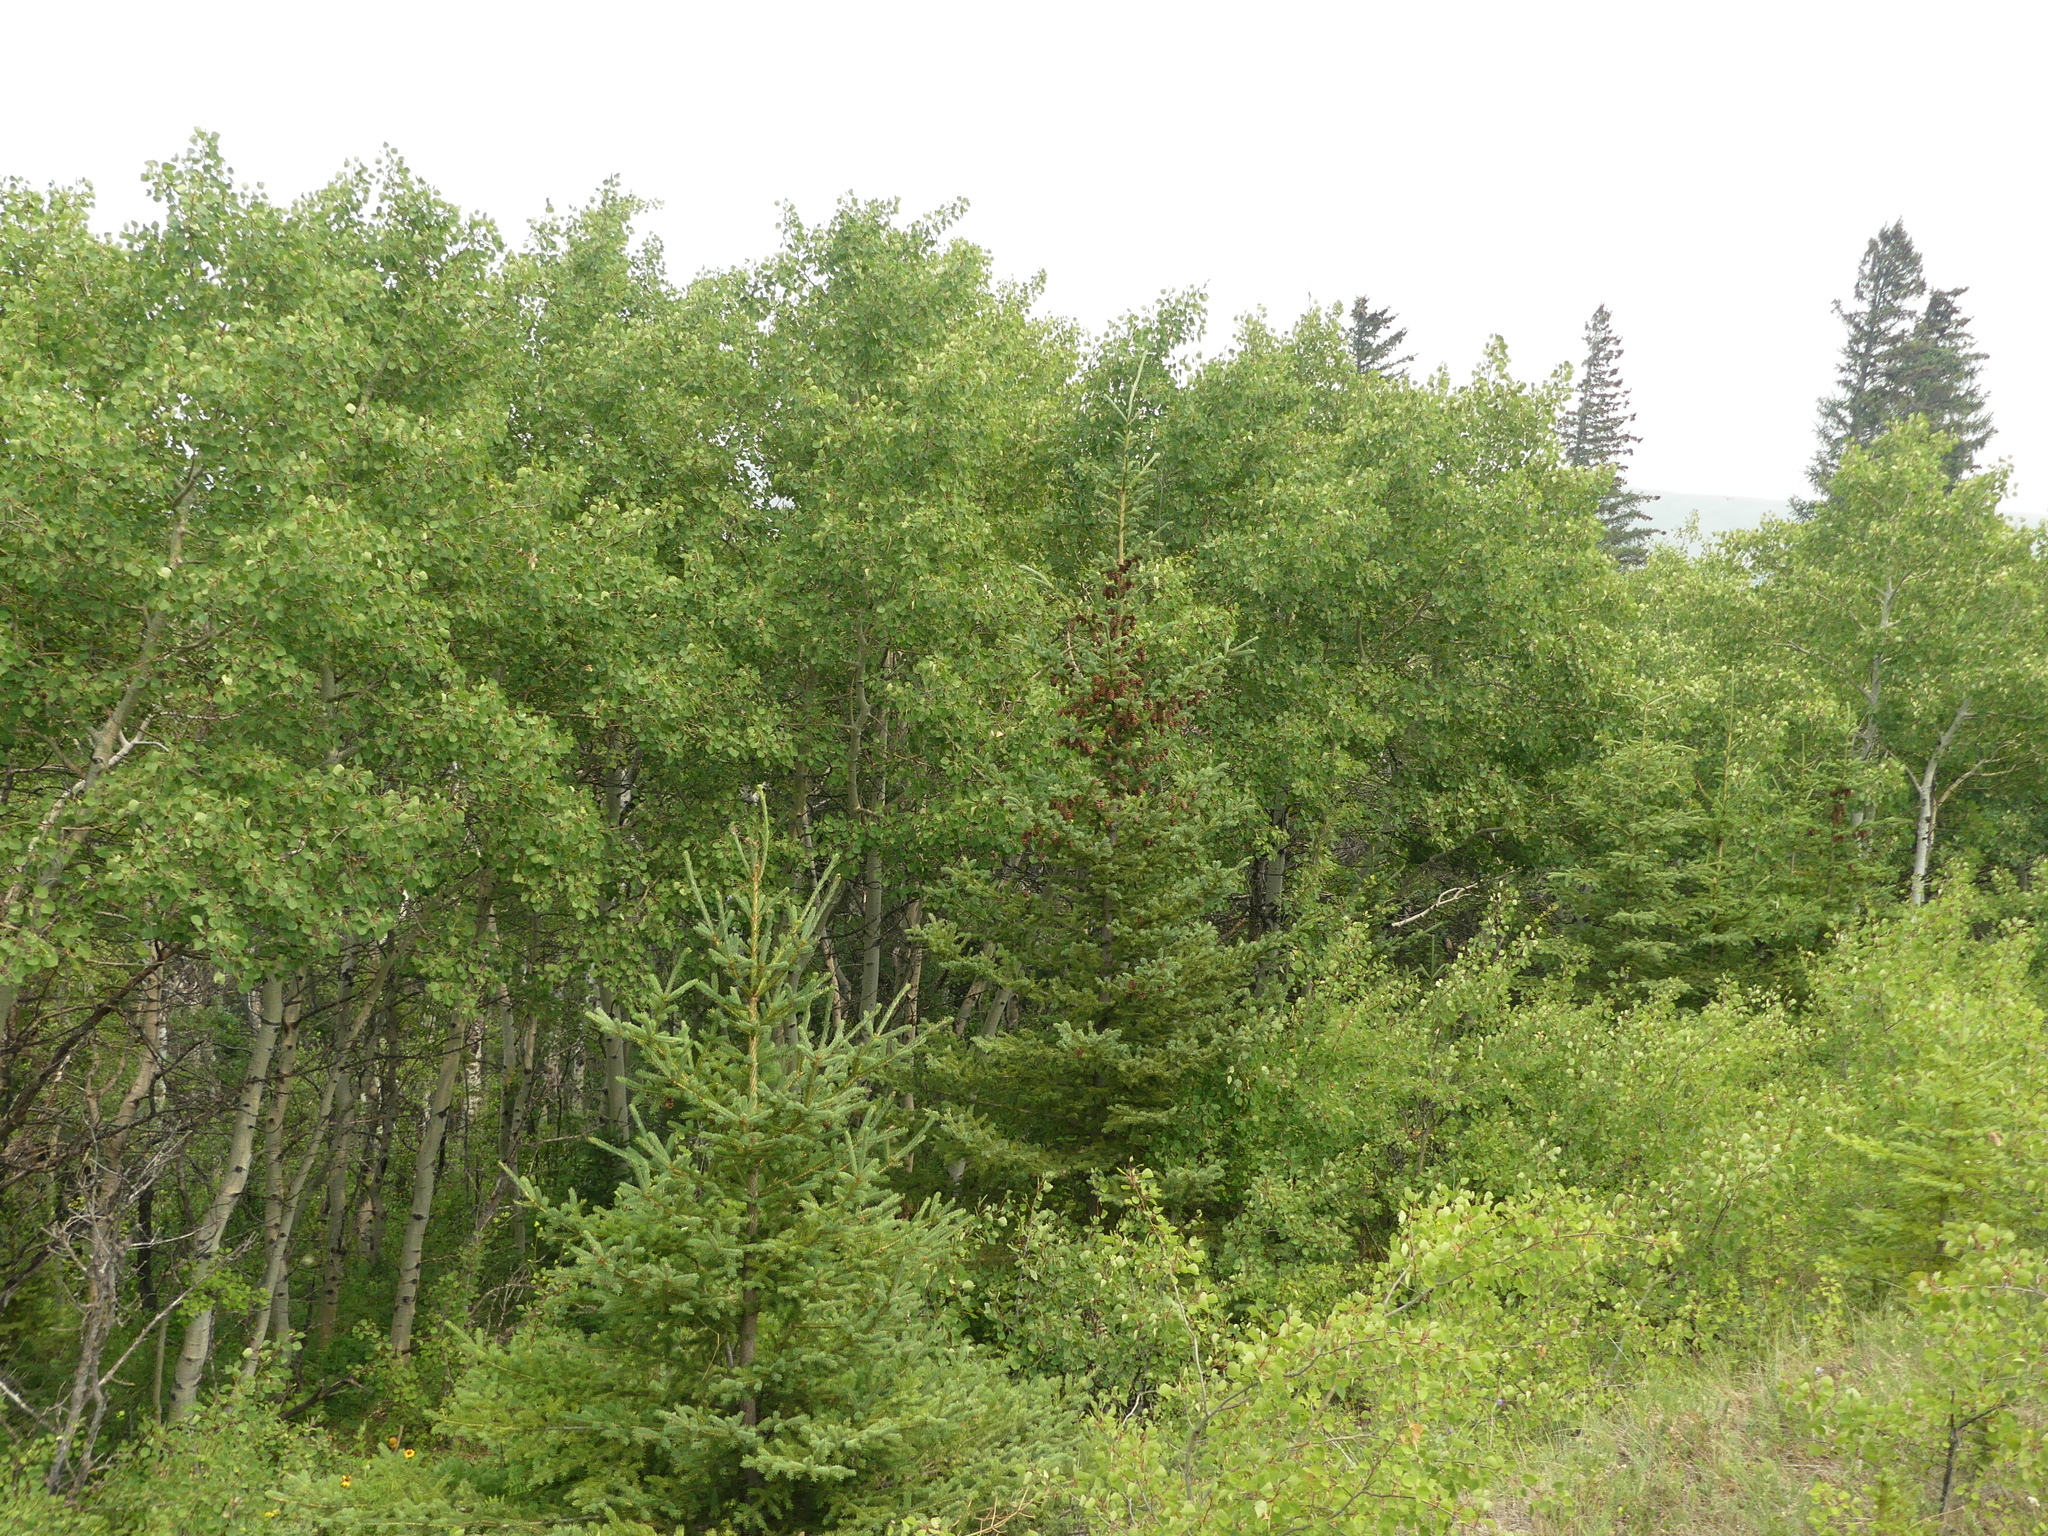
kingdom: Plantae
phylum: Tracheophyta
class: Pinopsida
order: Pinales
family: Pinaceae
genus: Picea
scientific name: Picea glauca
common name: White spruce
